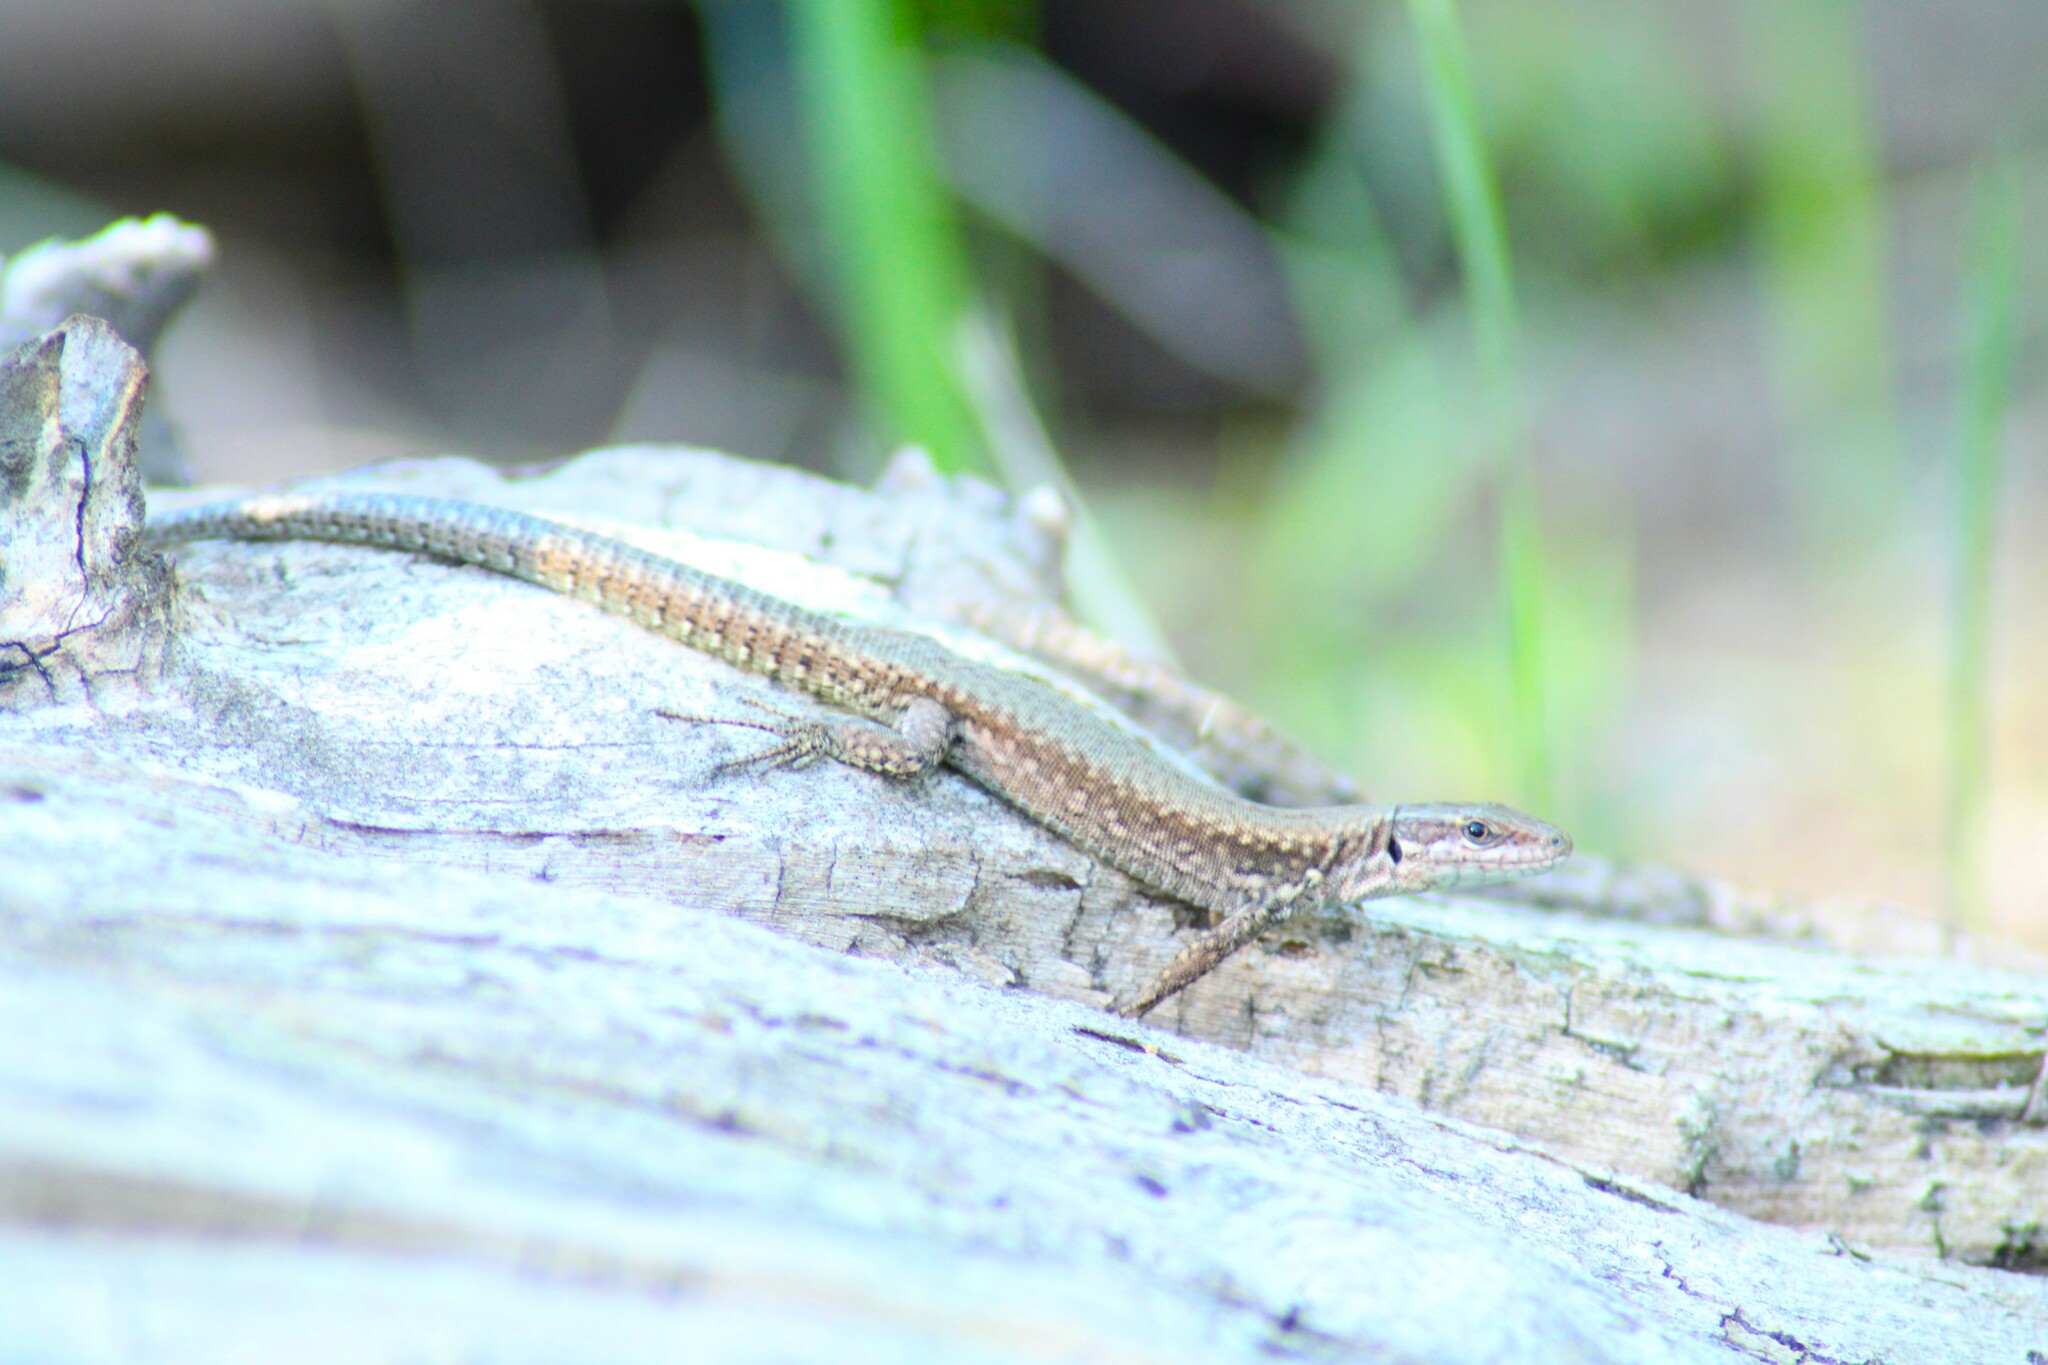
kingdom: Animalia
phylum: Chordata
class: Squamata
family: Lacertidae
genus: Podarcis
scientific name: Podarcis muralis
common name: Common wall lizard
